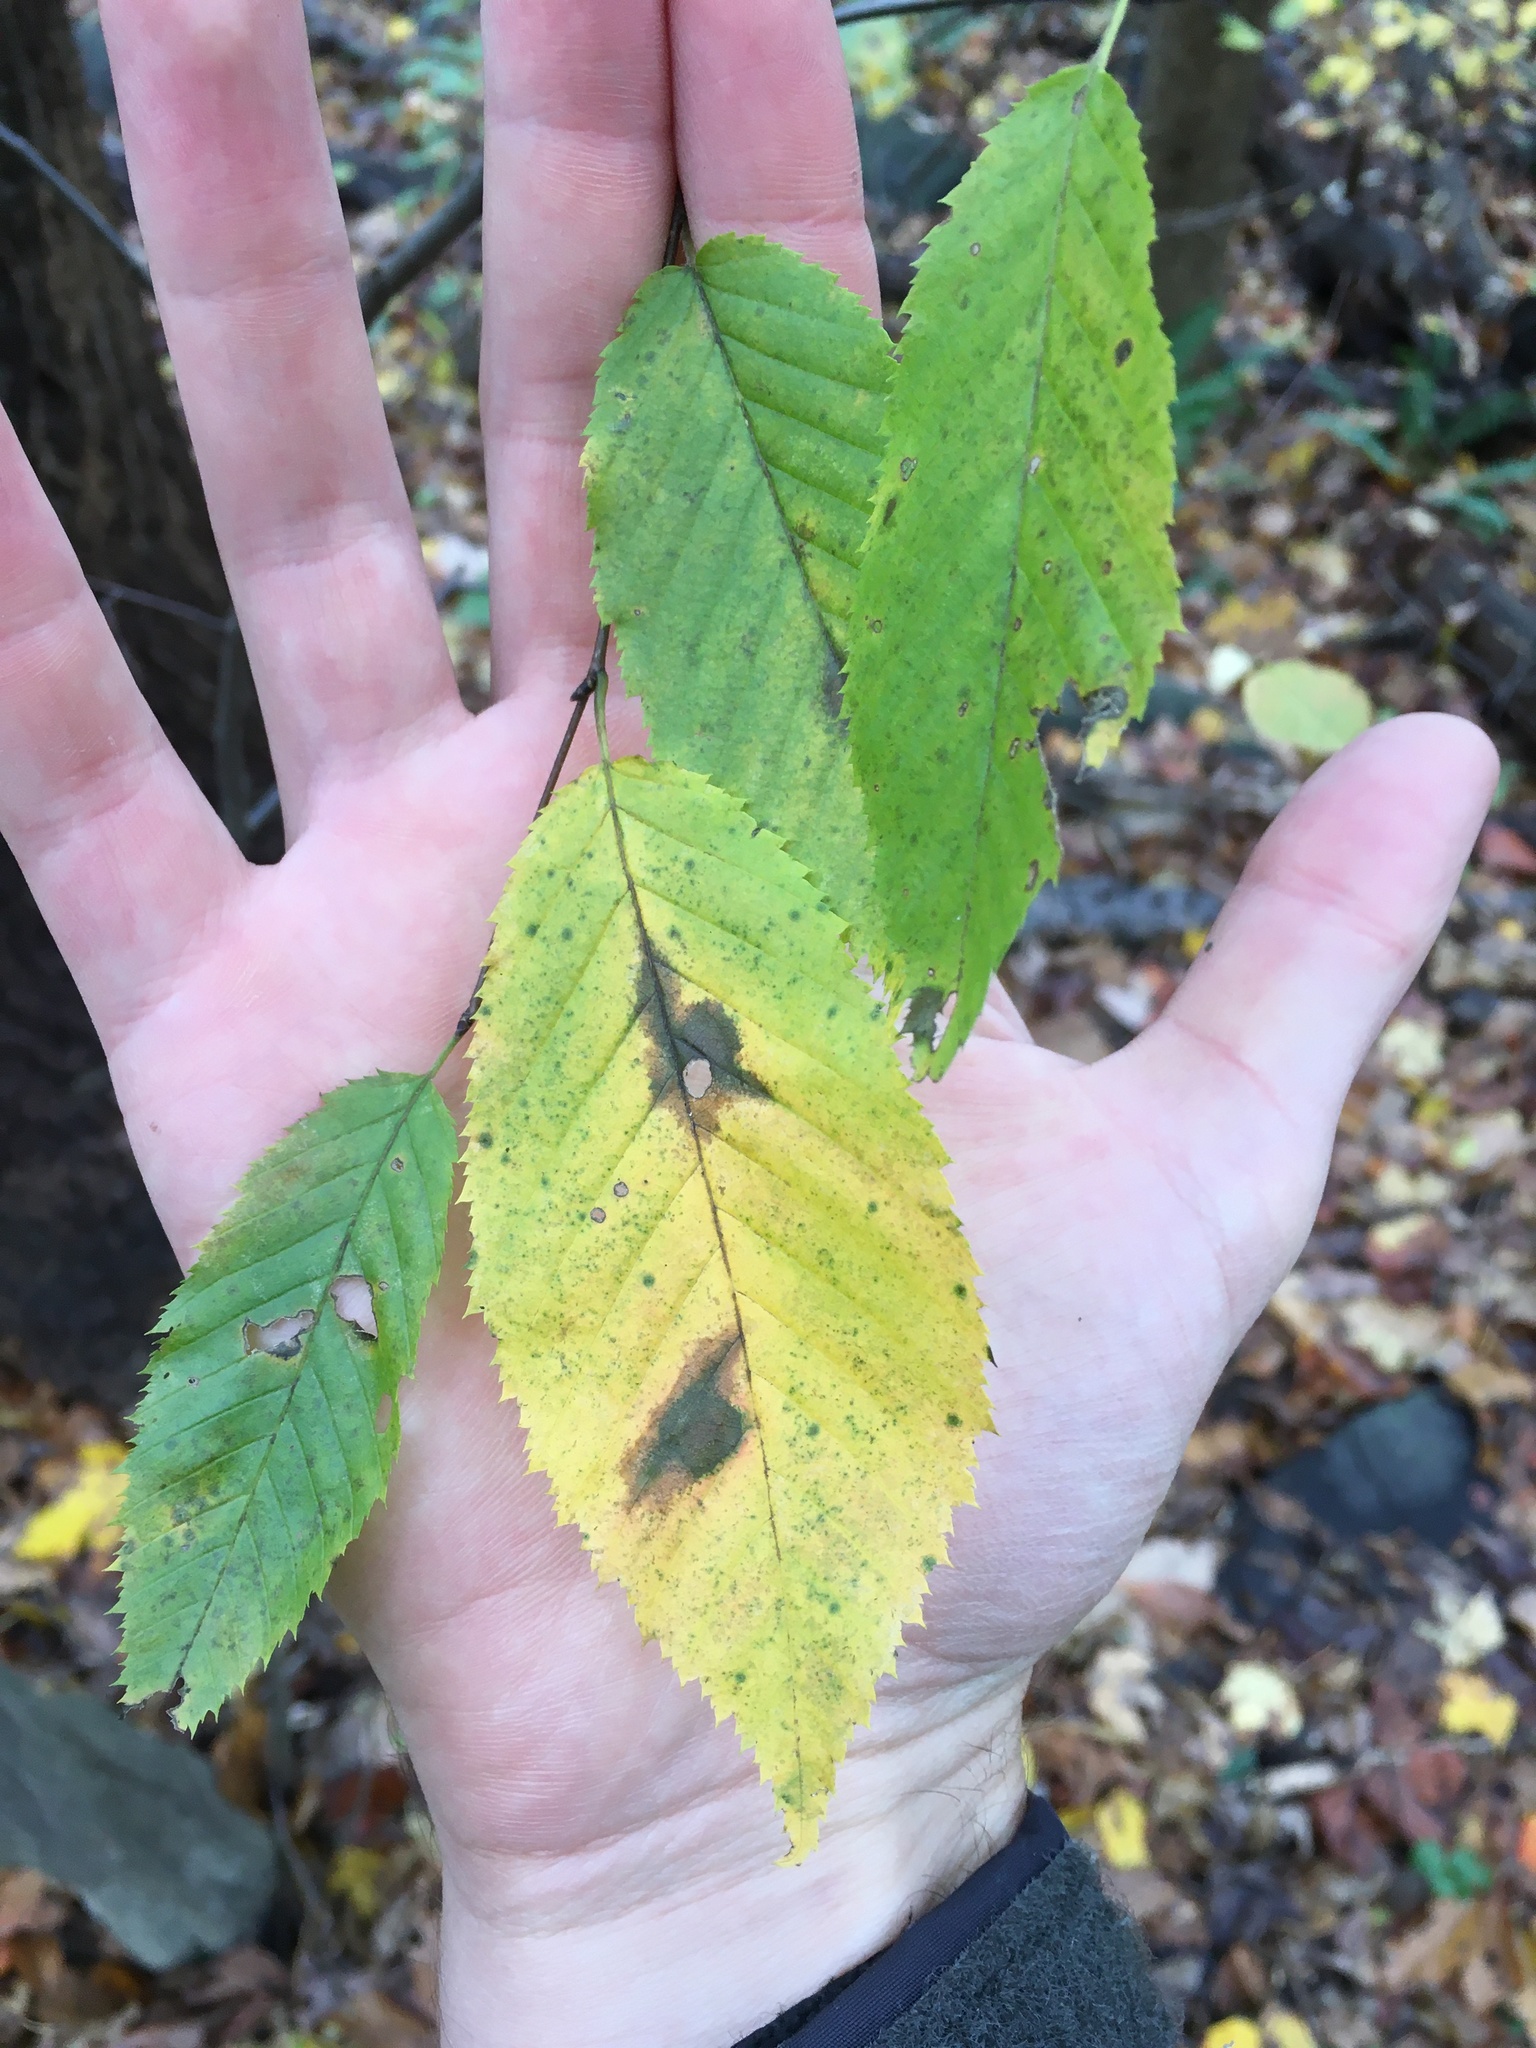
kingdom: Plantae
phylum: Tracheophyta
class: Magnoliopsida
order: Fagales
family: Betulaceae
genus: Carpinus
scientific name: Carpinus caroliniana
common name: American hornbeam
